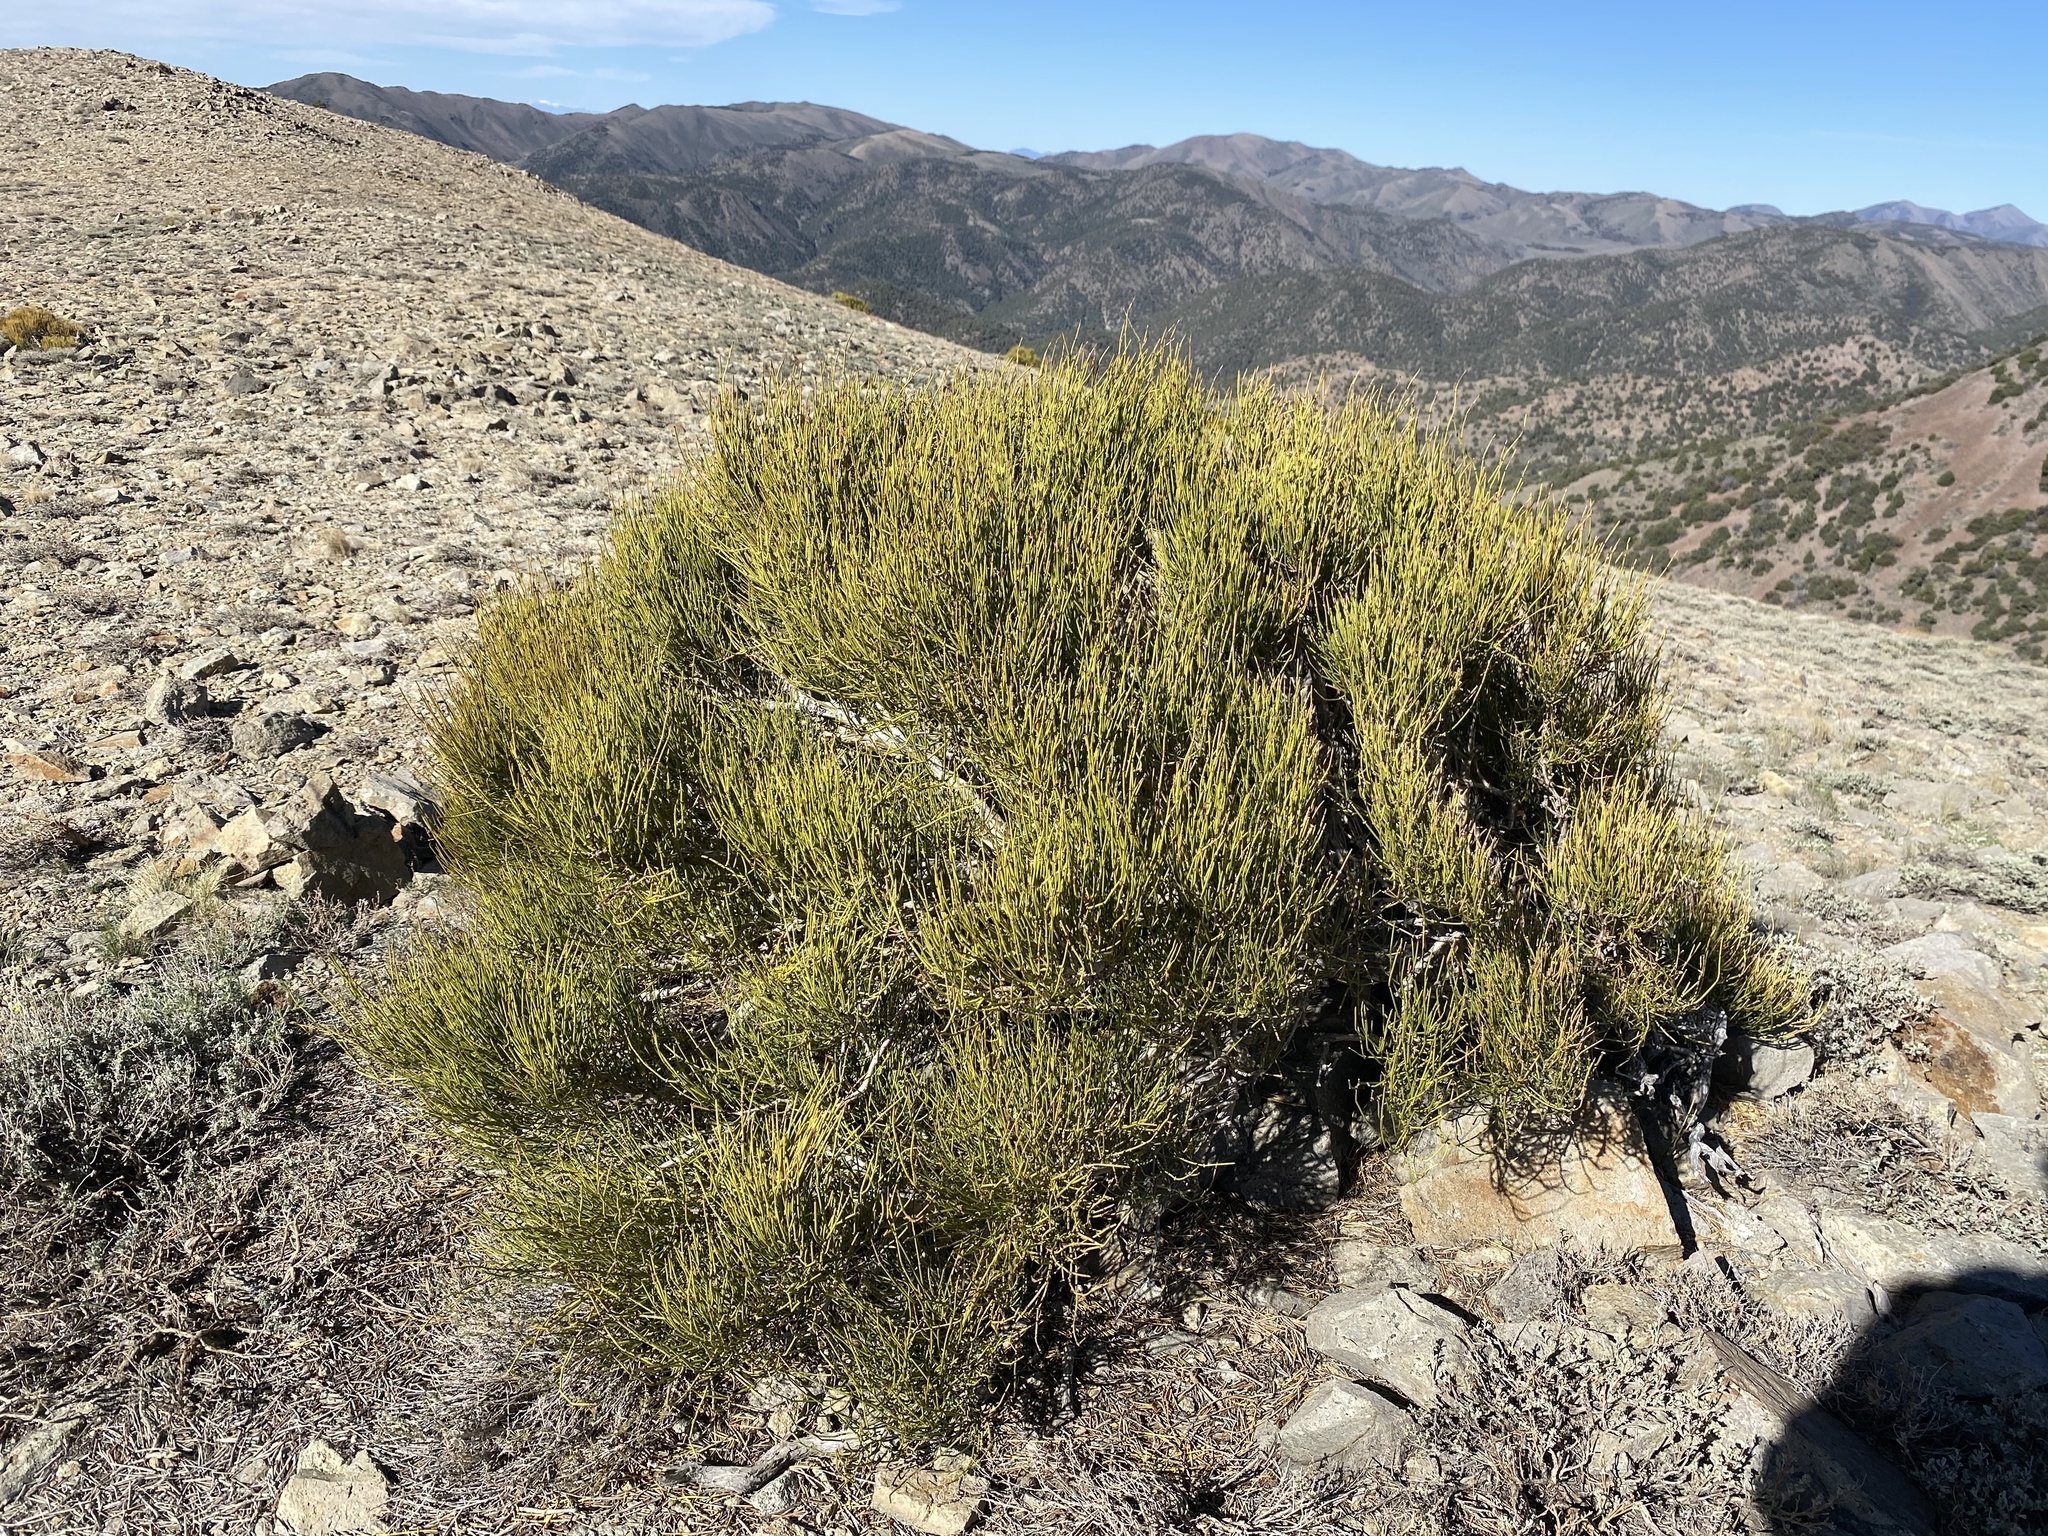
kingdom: Plantae
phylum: Tracheophyta
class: Gnetopsida
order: Ephedrales
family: Ephedraceae
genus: Ephedra
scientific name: Ephedra viridis
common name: Green ephedra
